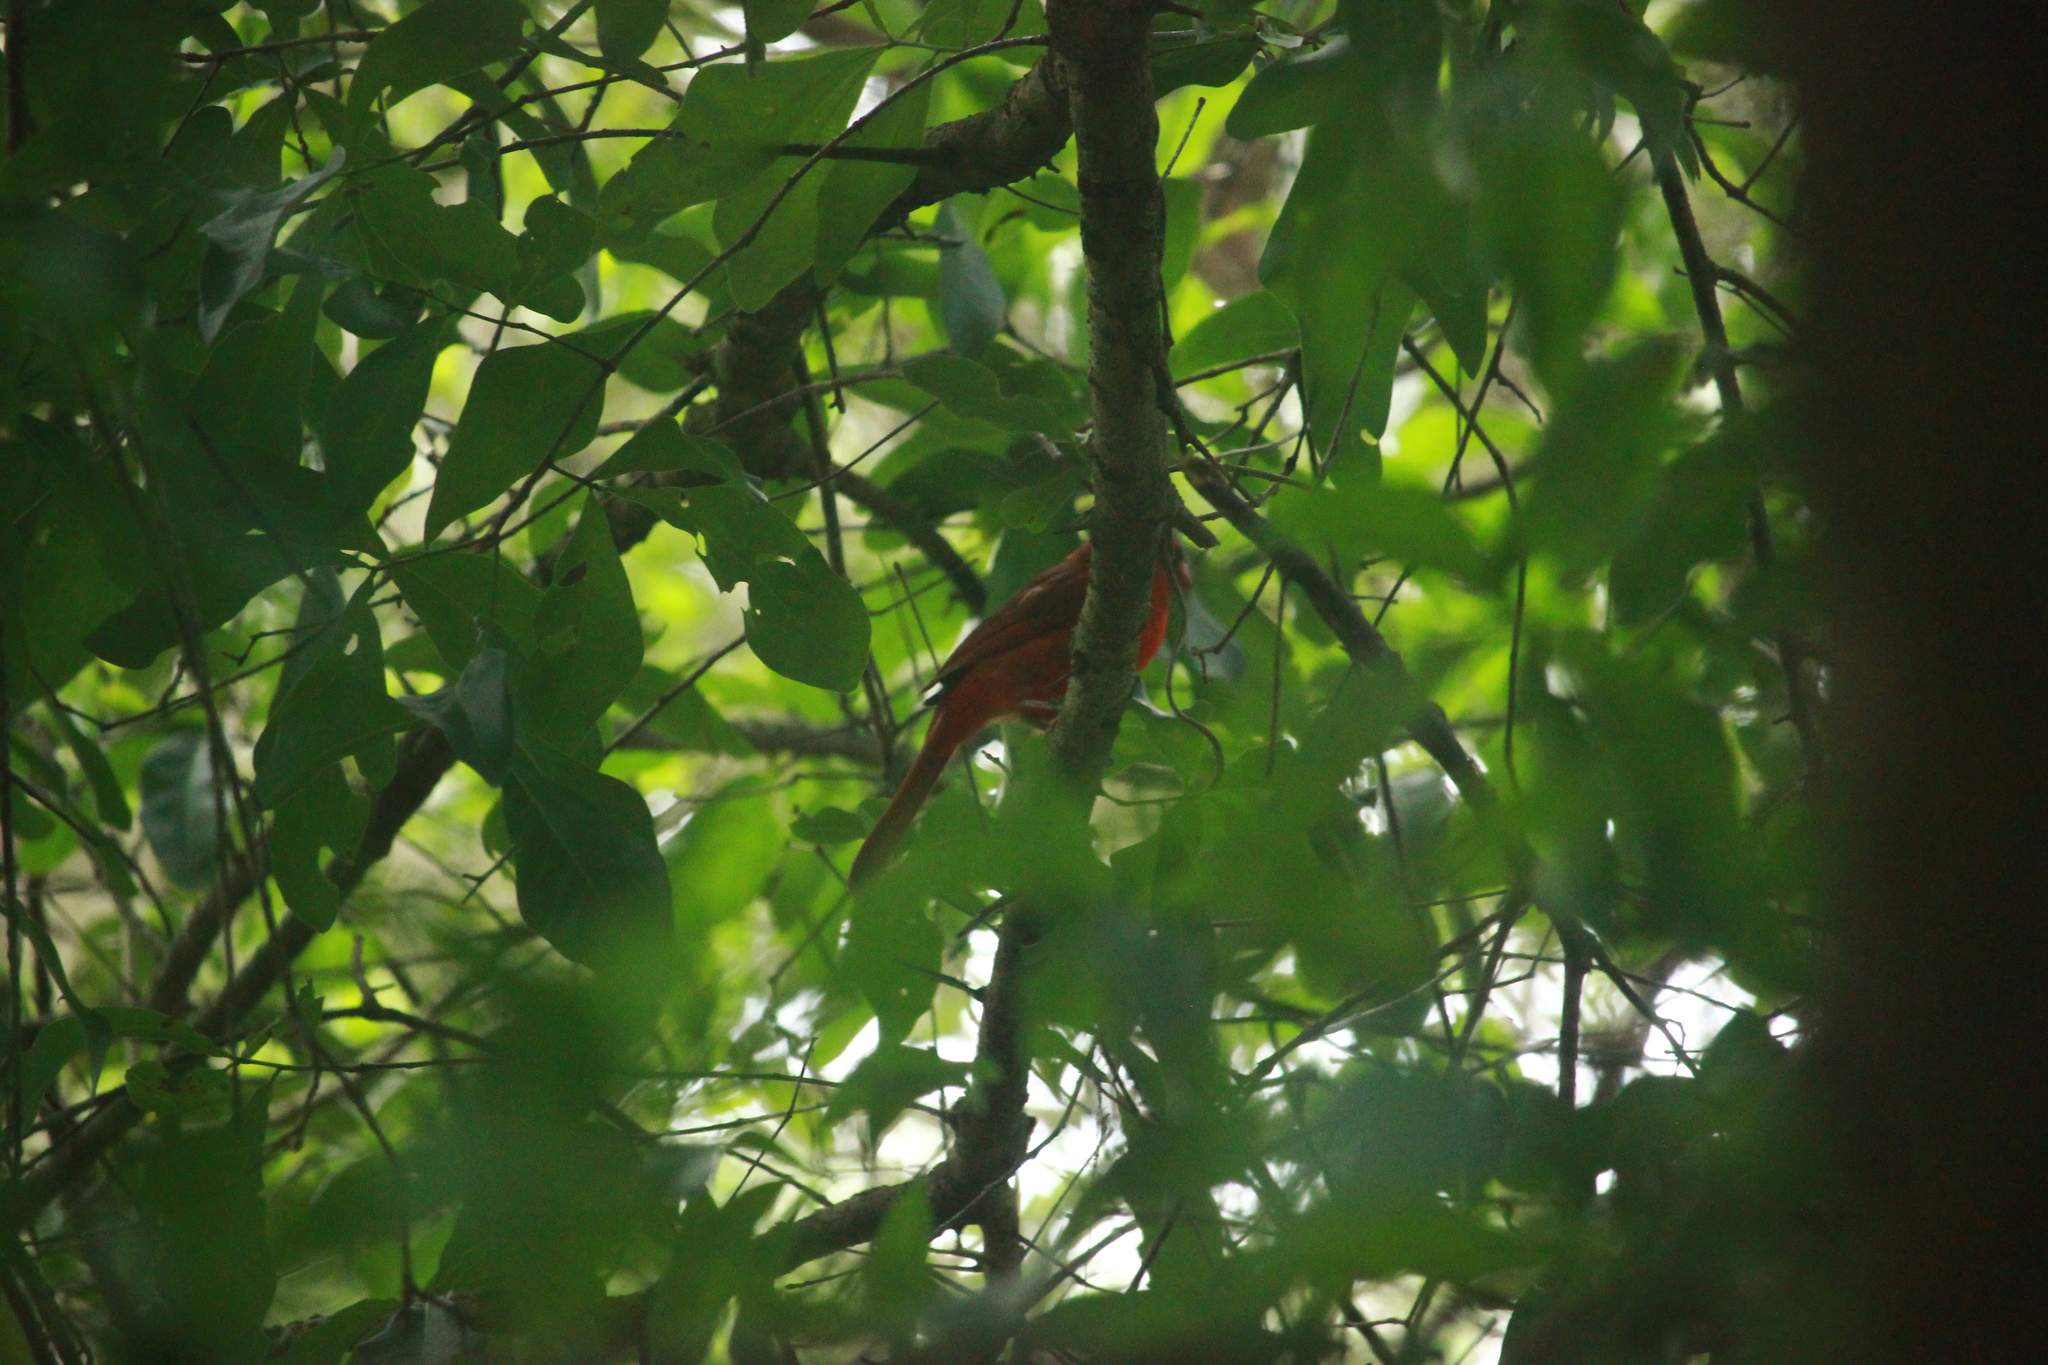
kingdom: Animalia
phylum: Chordata
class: Aves
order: Passeriformes
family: Cardinalidae
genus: Cardinalis
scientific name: Cardinalis cardinalis
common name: Northern cardinal
